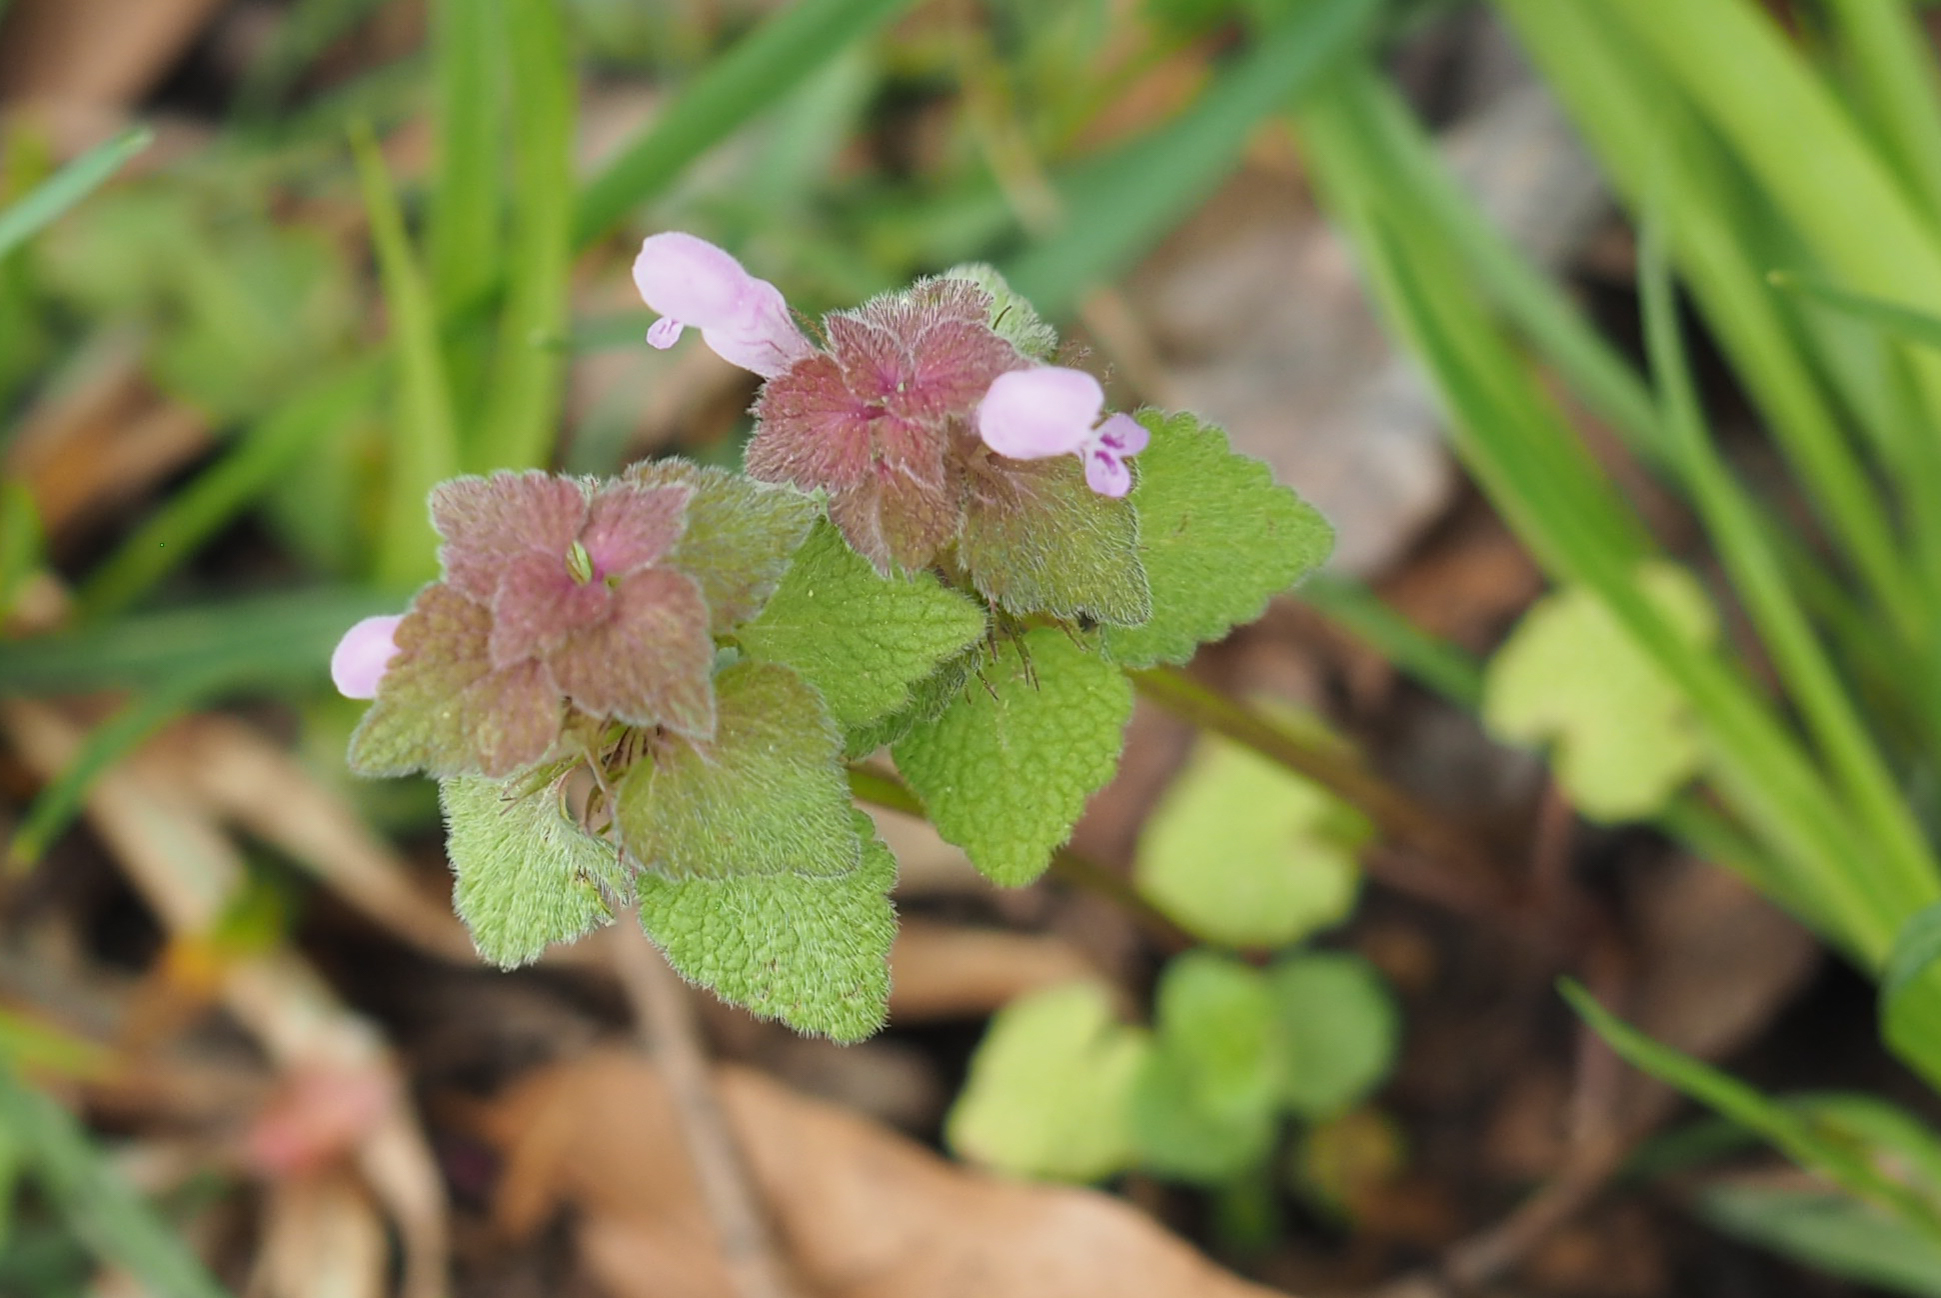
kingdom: Plantae
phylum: Tracheophyta
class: Magnoliopsida
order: Lamiales
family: Lamiaceae
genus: Lamium
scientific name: Lamium purpureum
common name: Red dead-nettle
